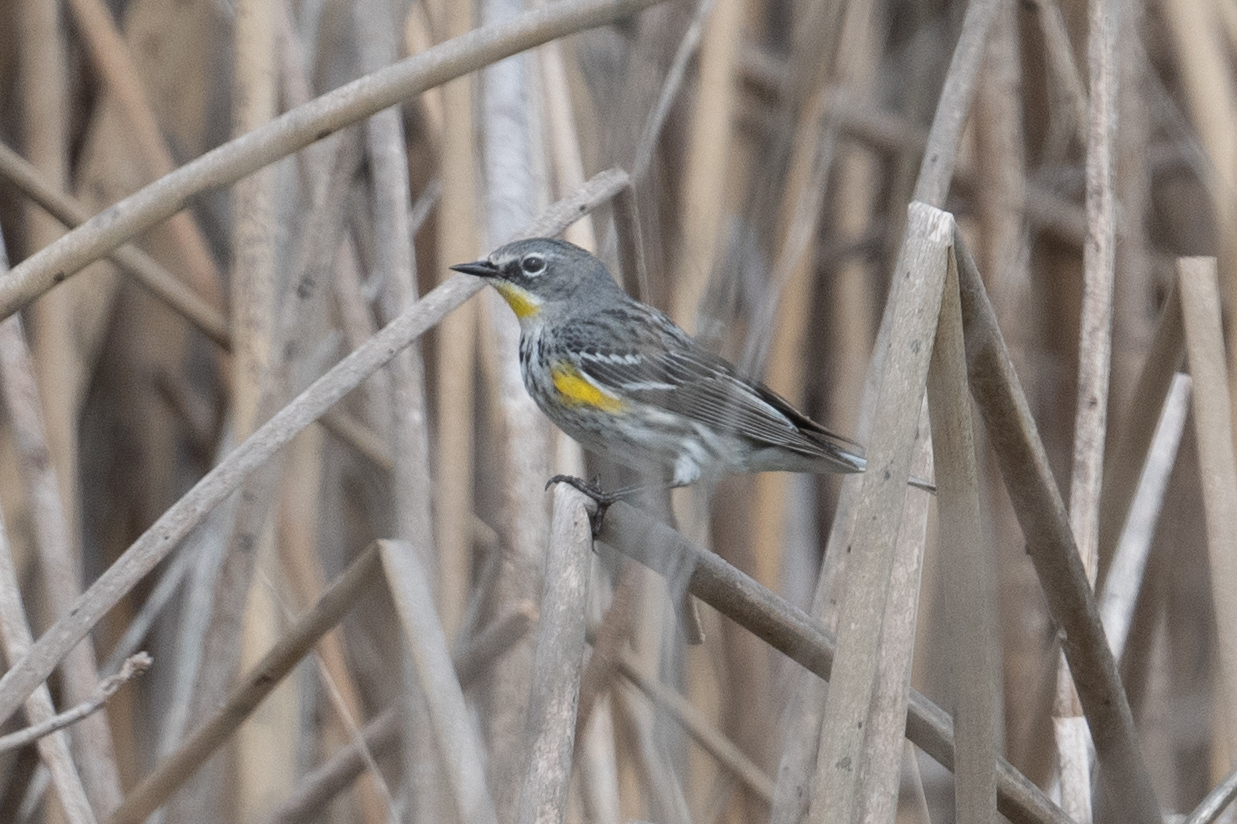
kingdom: Animalia
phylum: Chordata
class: Aves
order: Passeriformes
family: Parulidae
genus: Setophaga
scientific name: Setophaga coronata
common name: Myrtle warbler
